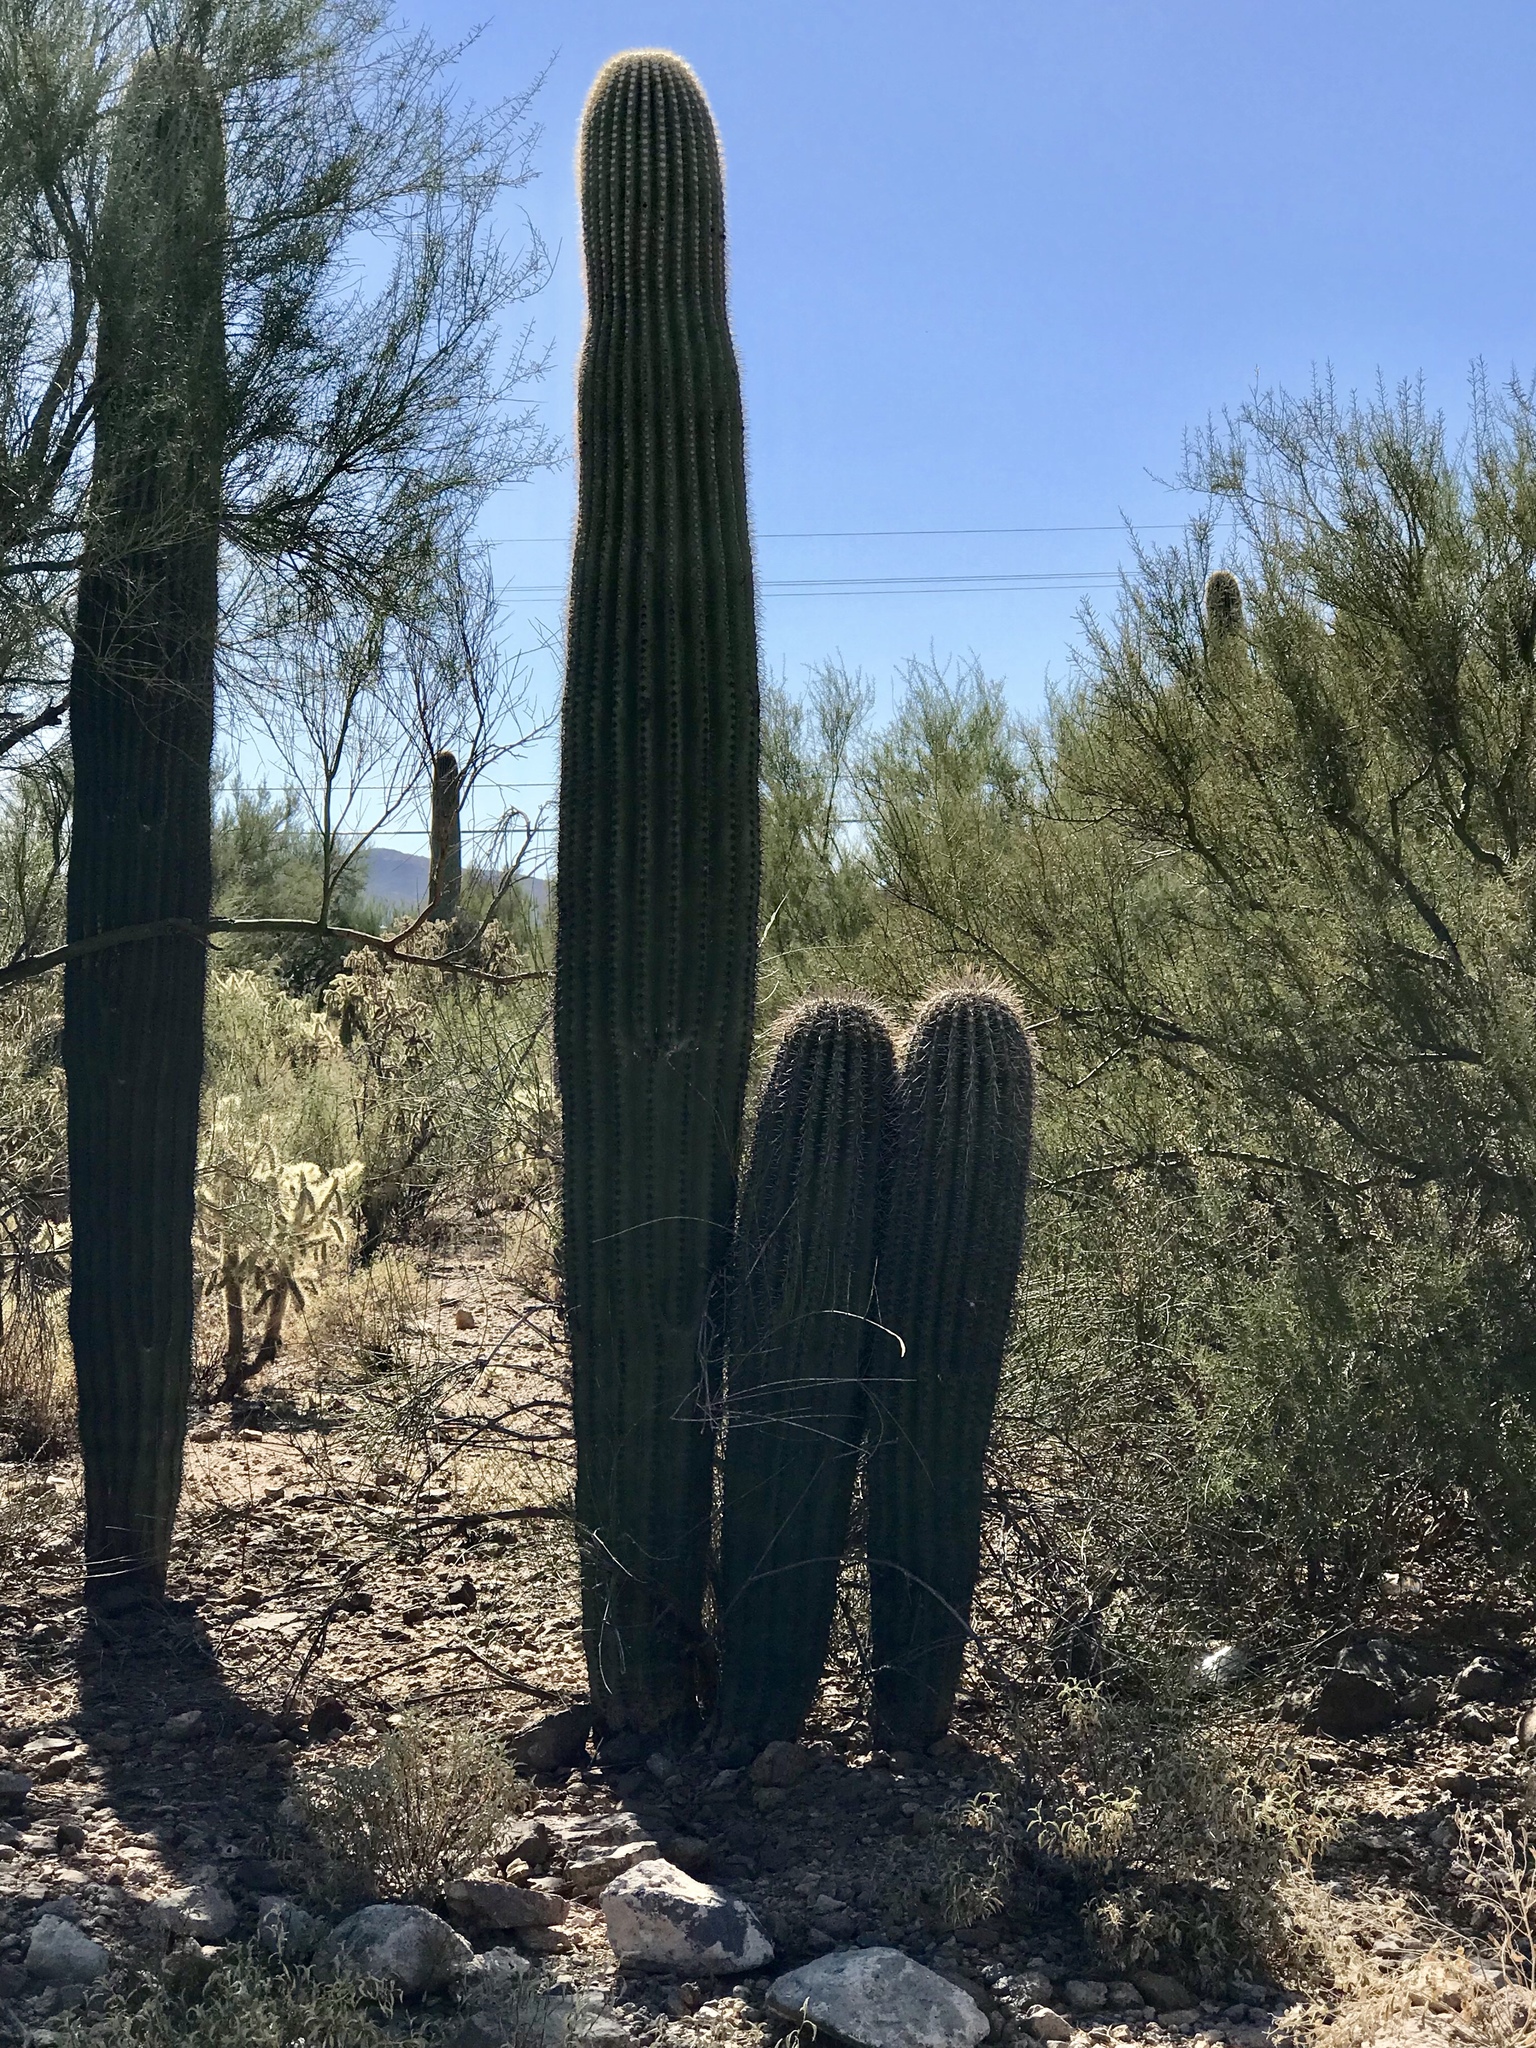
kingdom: Plantae
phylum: Tracheophyta
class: Magnoliopsida
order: Caryophyllales
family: Cactaceae
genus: Carnegiea
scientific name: Carnegiea gigantea
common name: Saguaro
